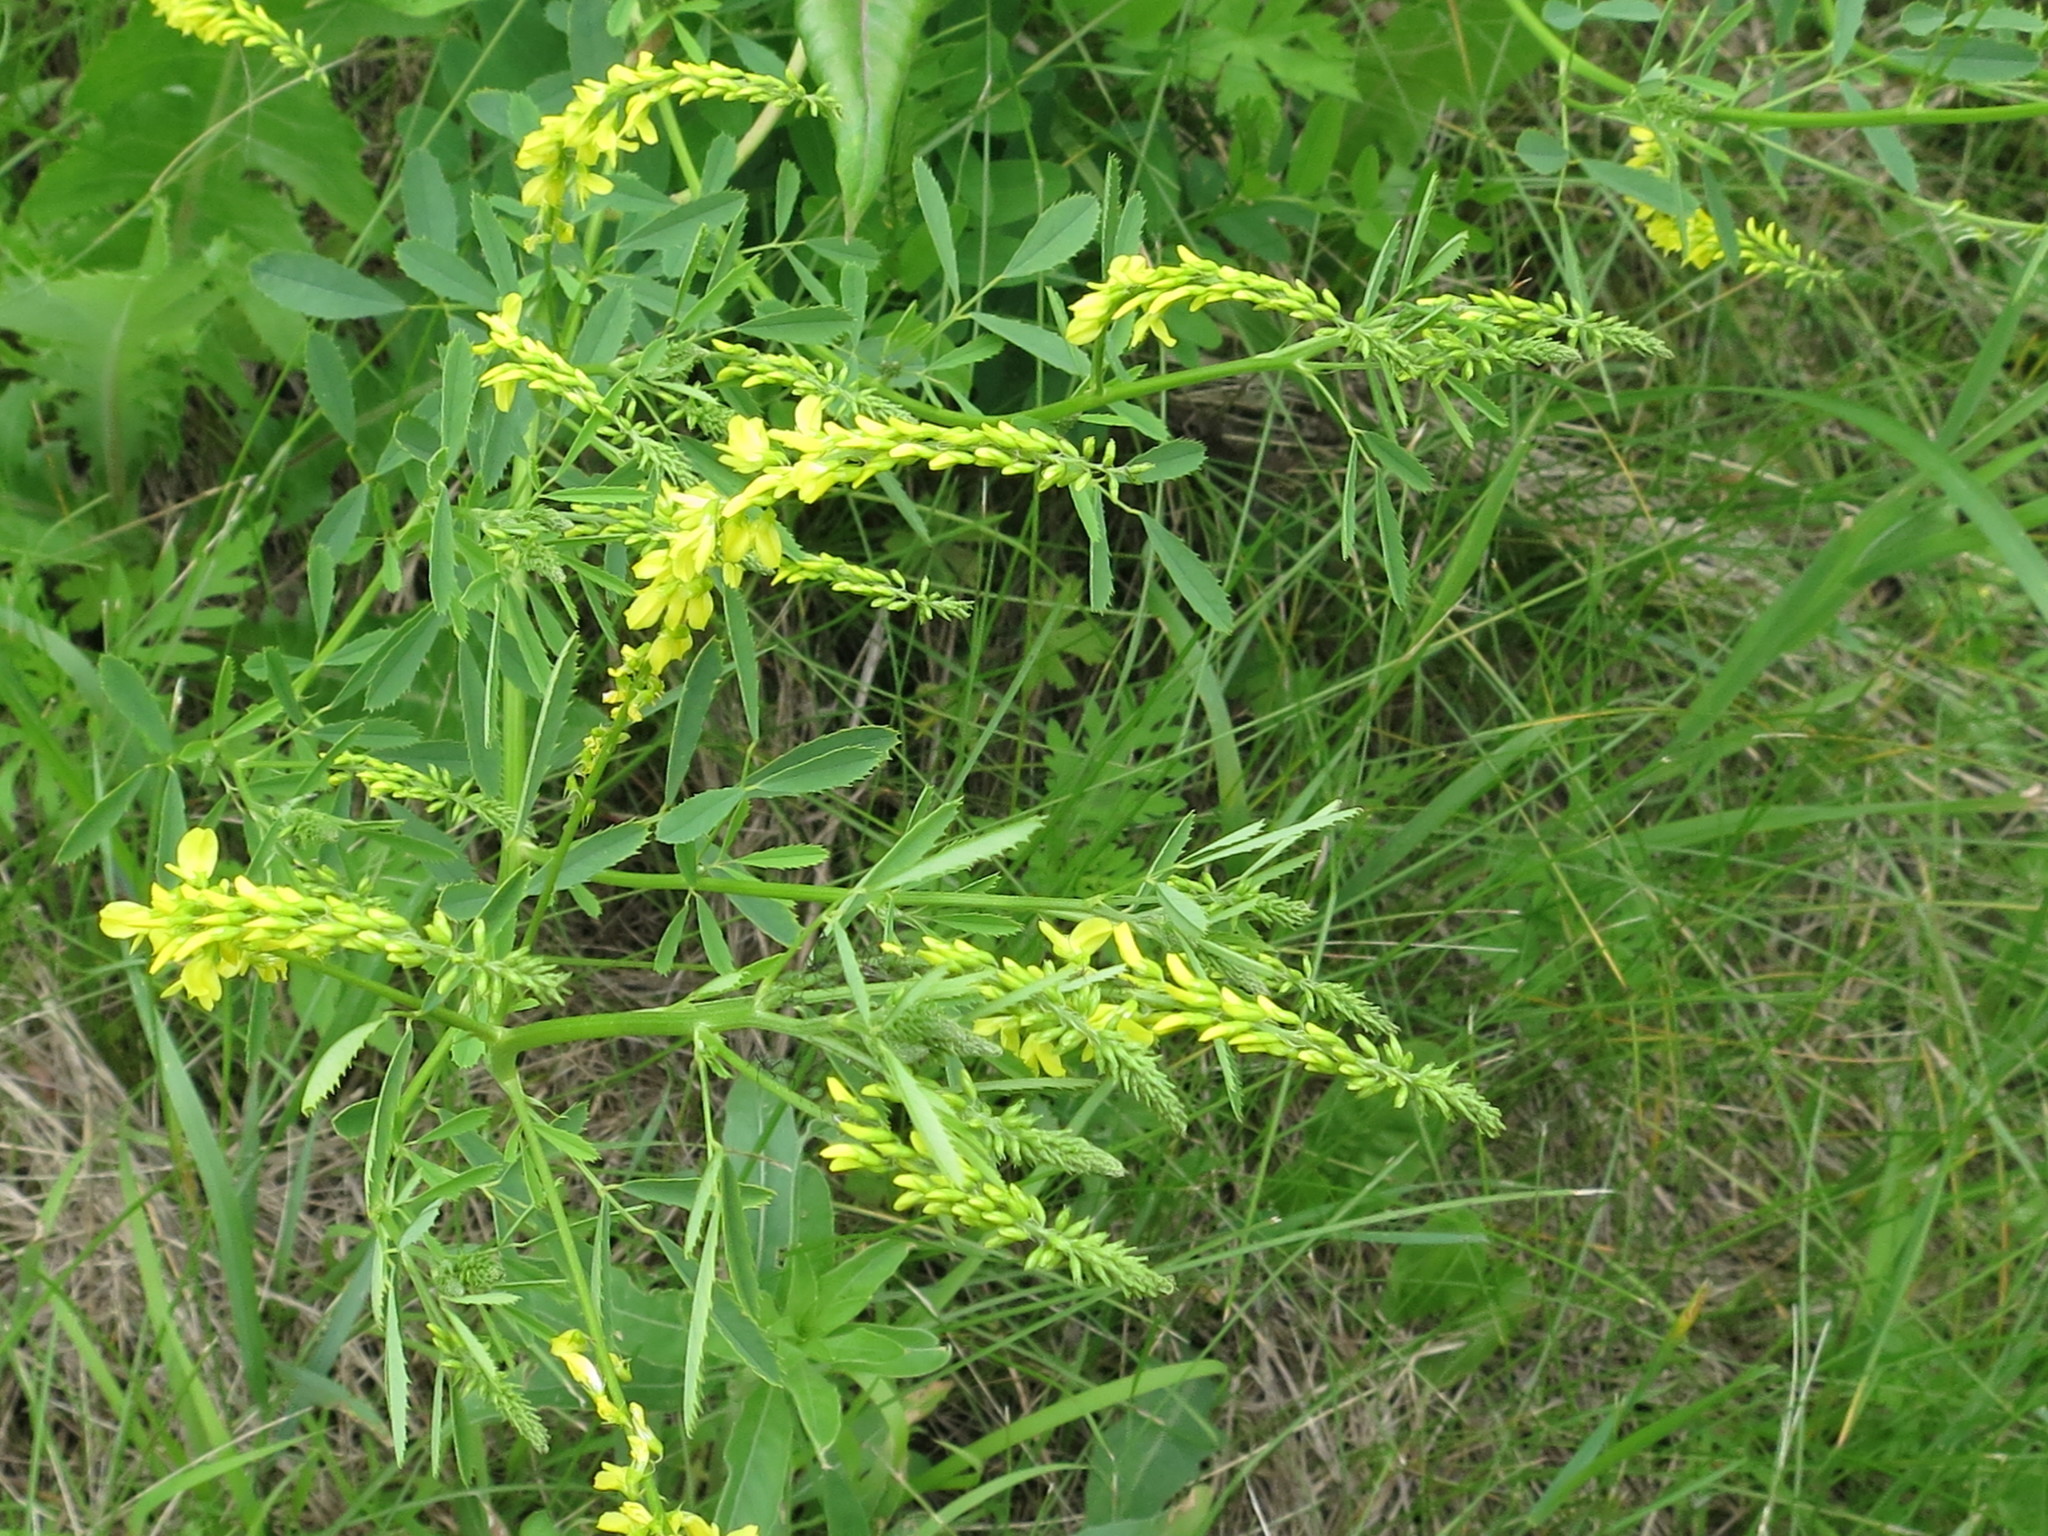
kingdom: Plantae
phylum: Tracheophyta
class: Magnoliopsida
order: Fabales
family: Fabaceae
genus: Melilotus
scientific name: Melilotus officinalis
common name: Sweetclover
